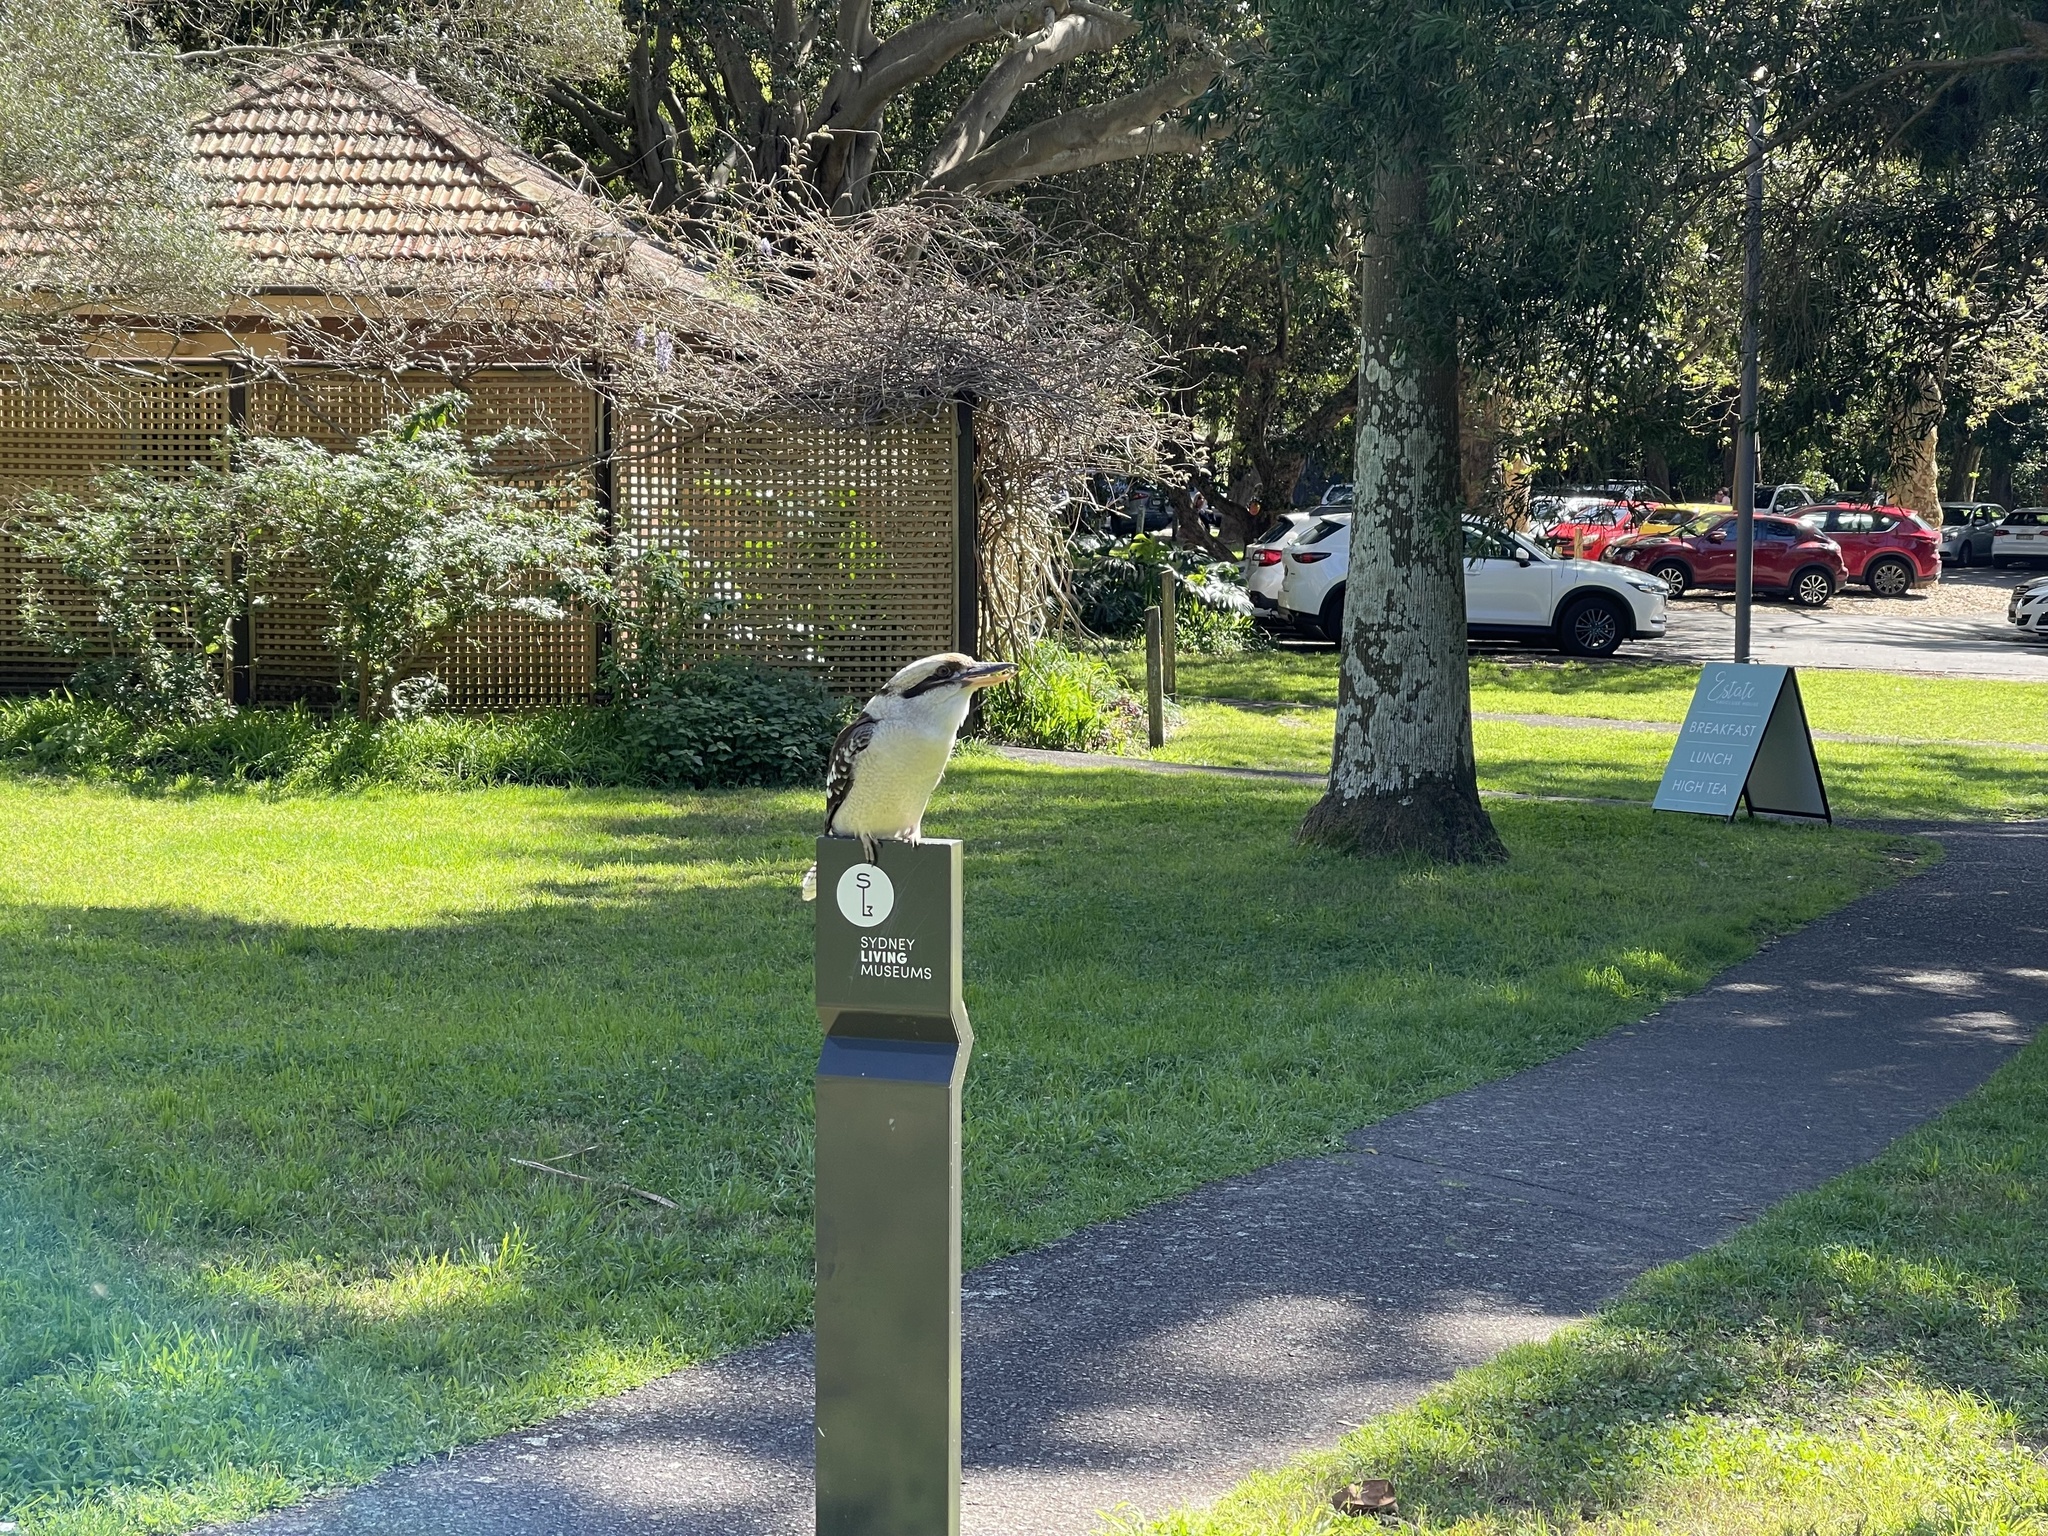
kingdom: Animalia
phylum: Chordata
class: Aves
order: Coraciiformes
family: Alcedinidae
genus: Dacelo
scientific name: Dacelo novaeguineae
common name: Laughing kookaburra
